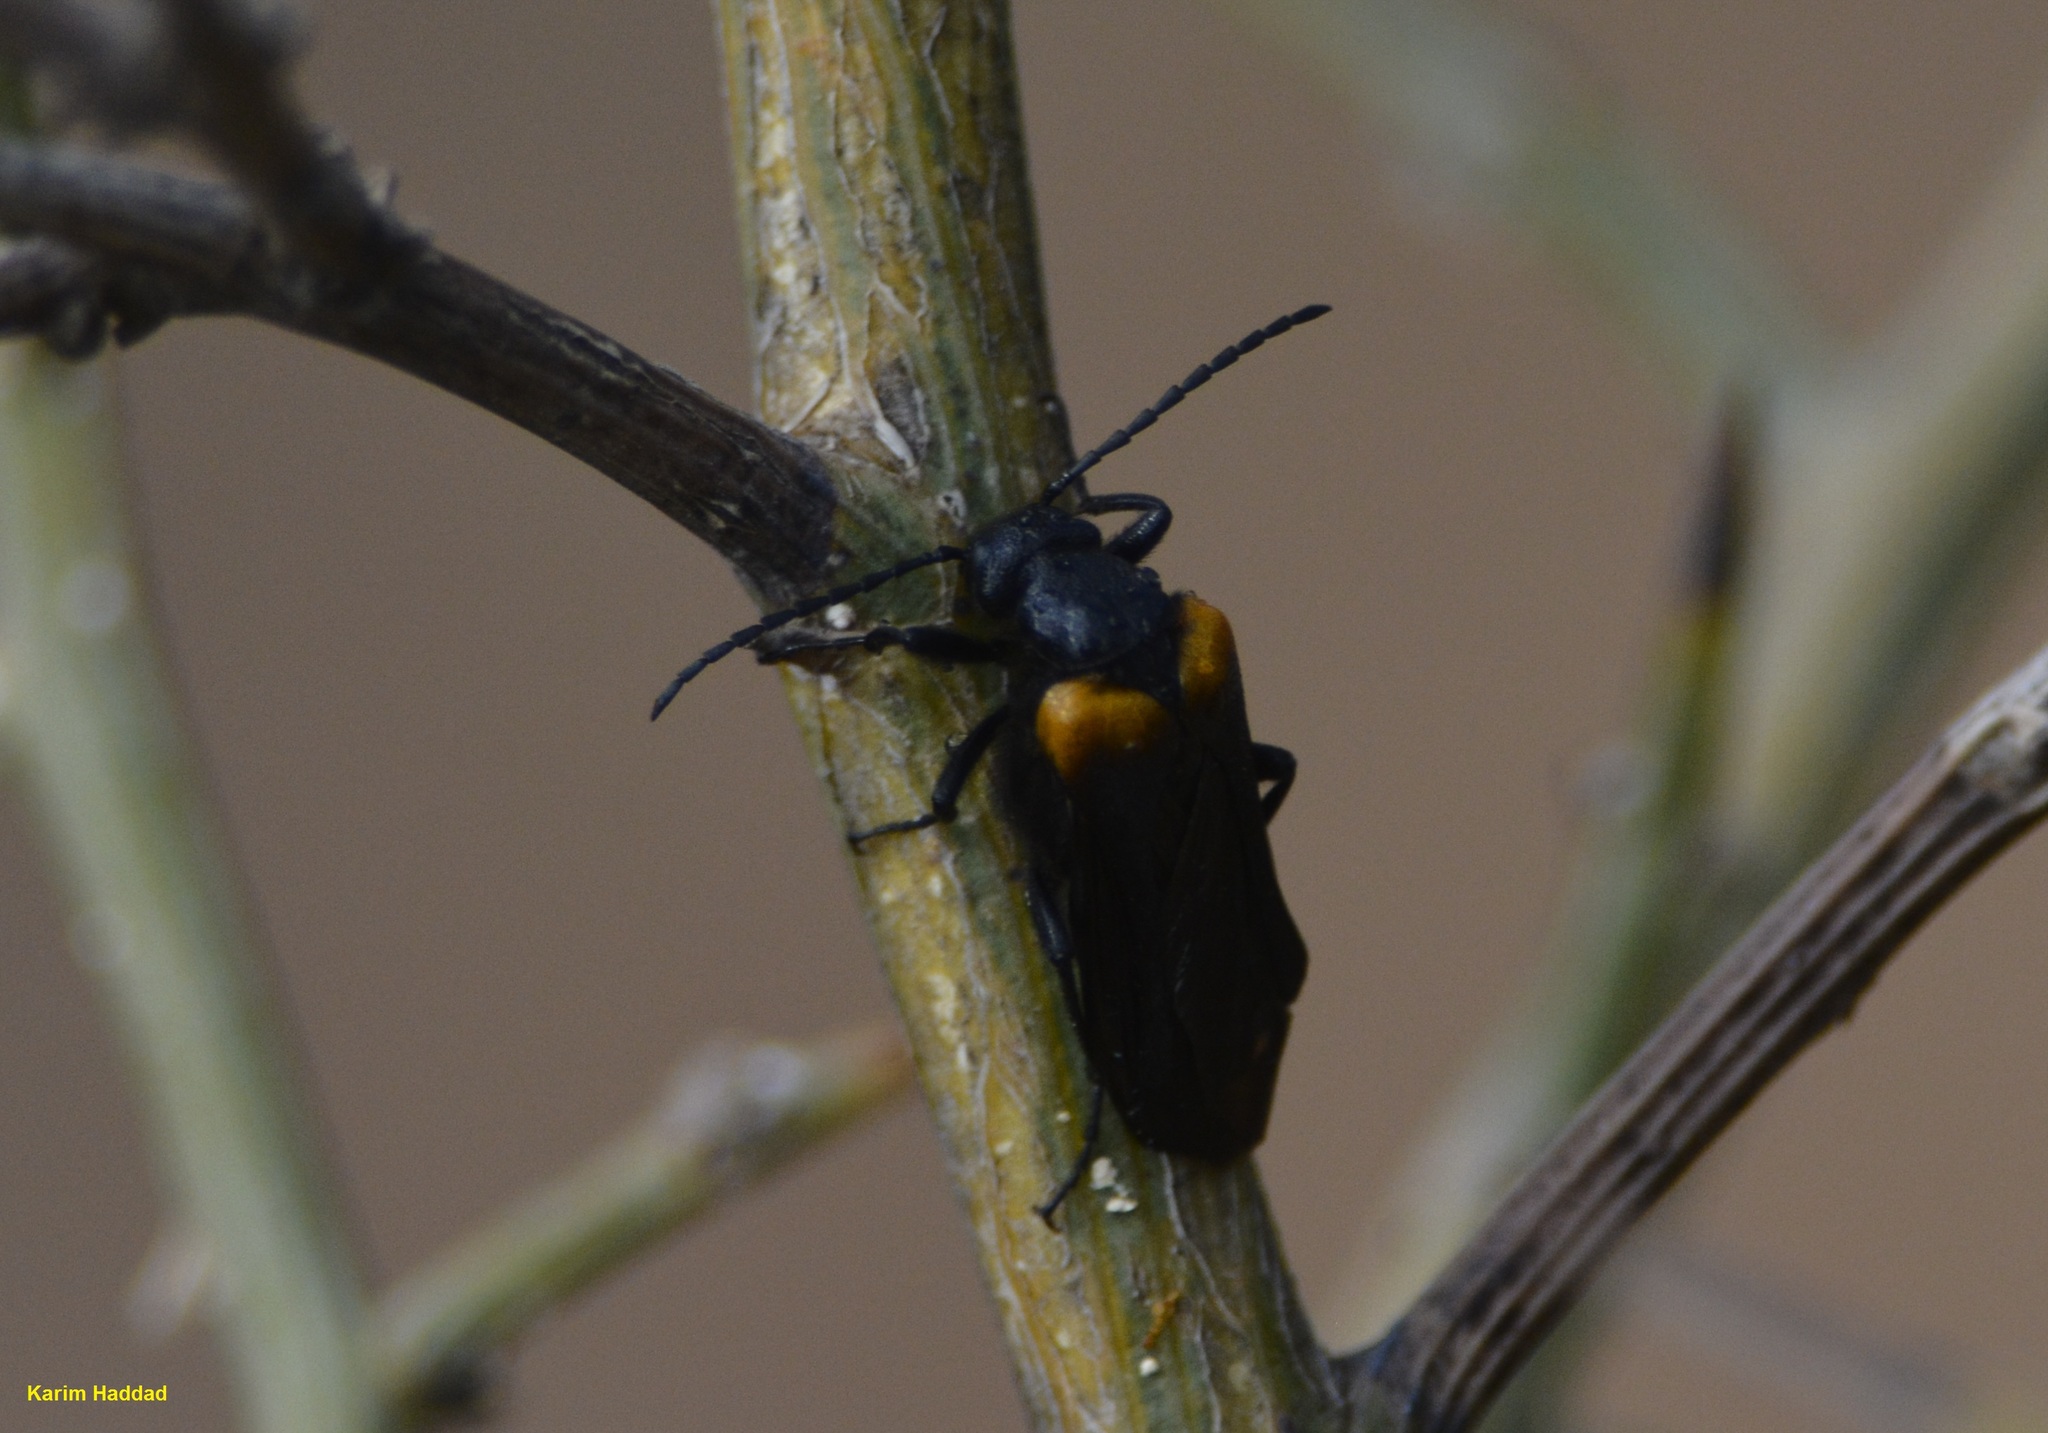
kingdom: Animalia
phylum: Arthropoda
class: Insecta
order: Coleoptera
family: Meloidae
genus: Sitaris
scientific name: Sitaris muralis
